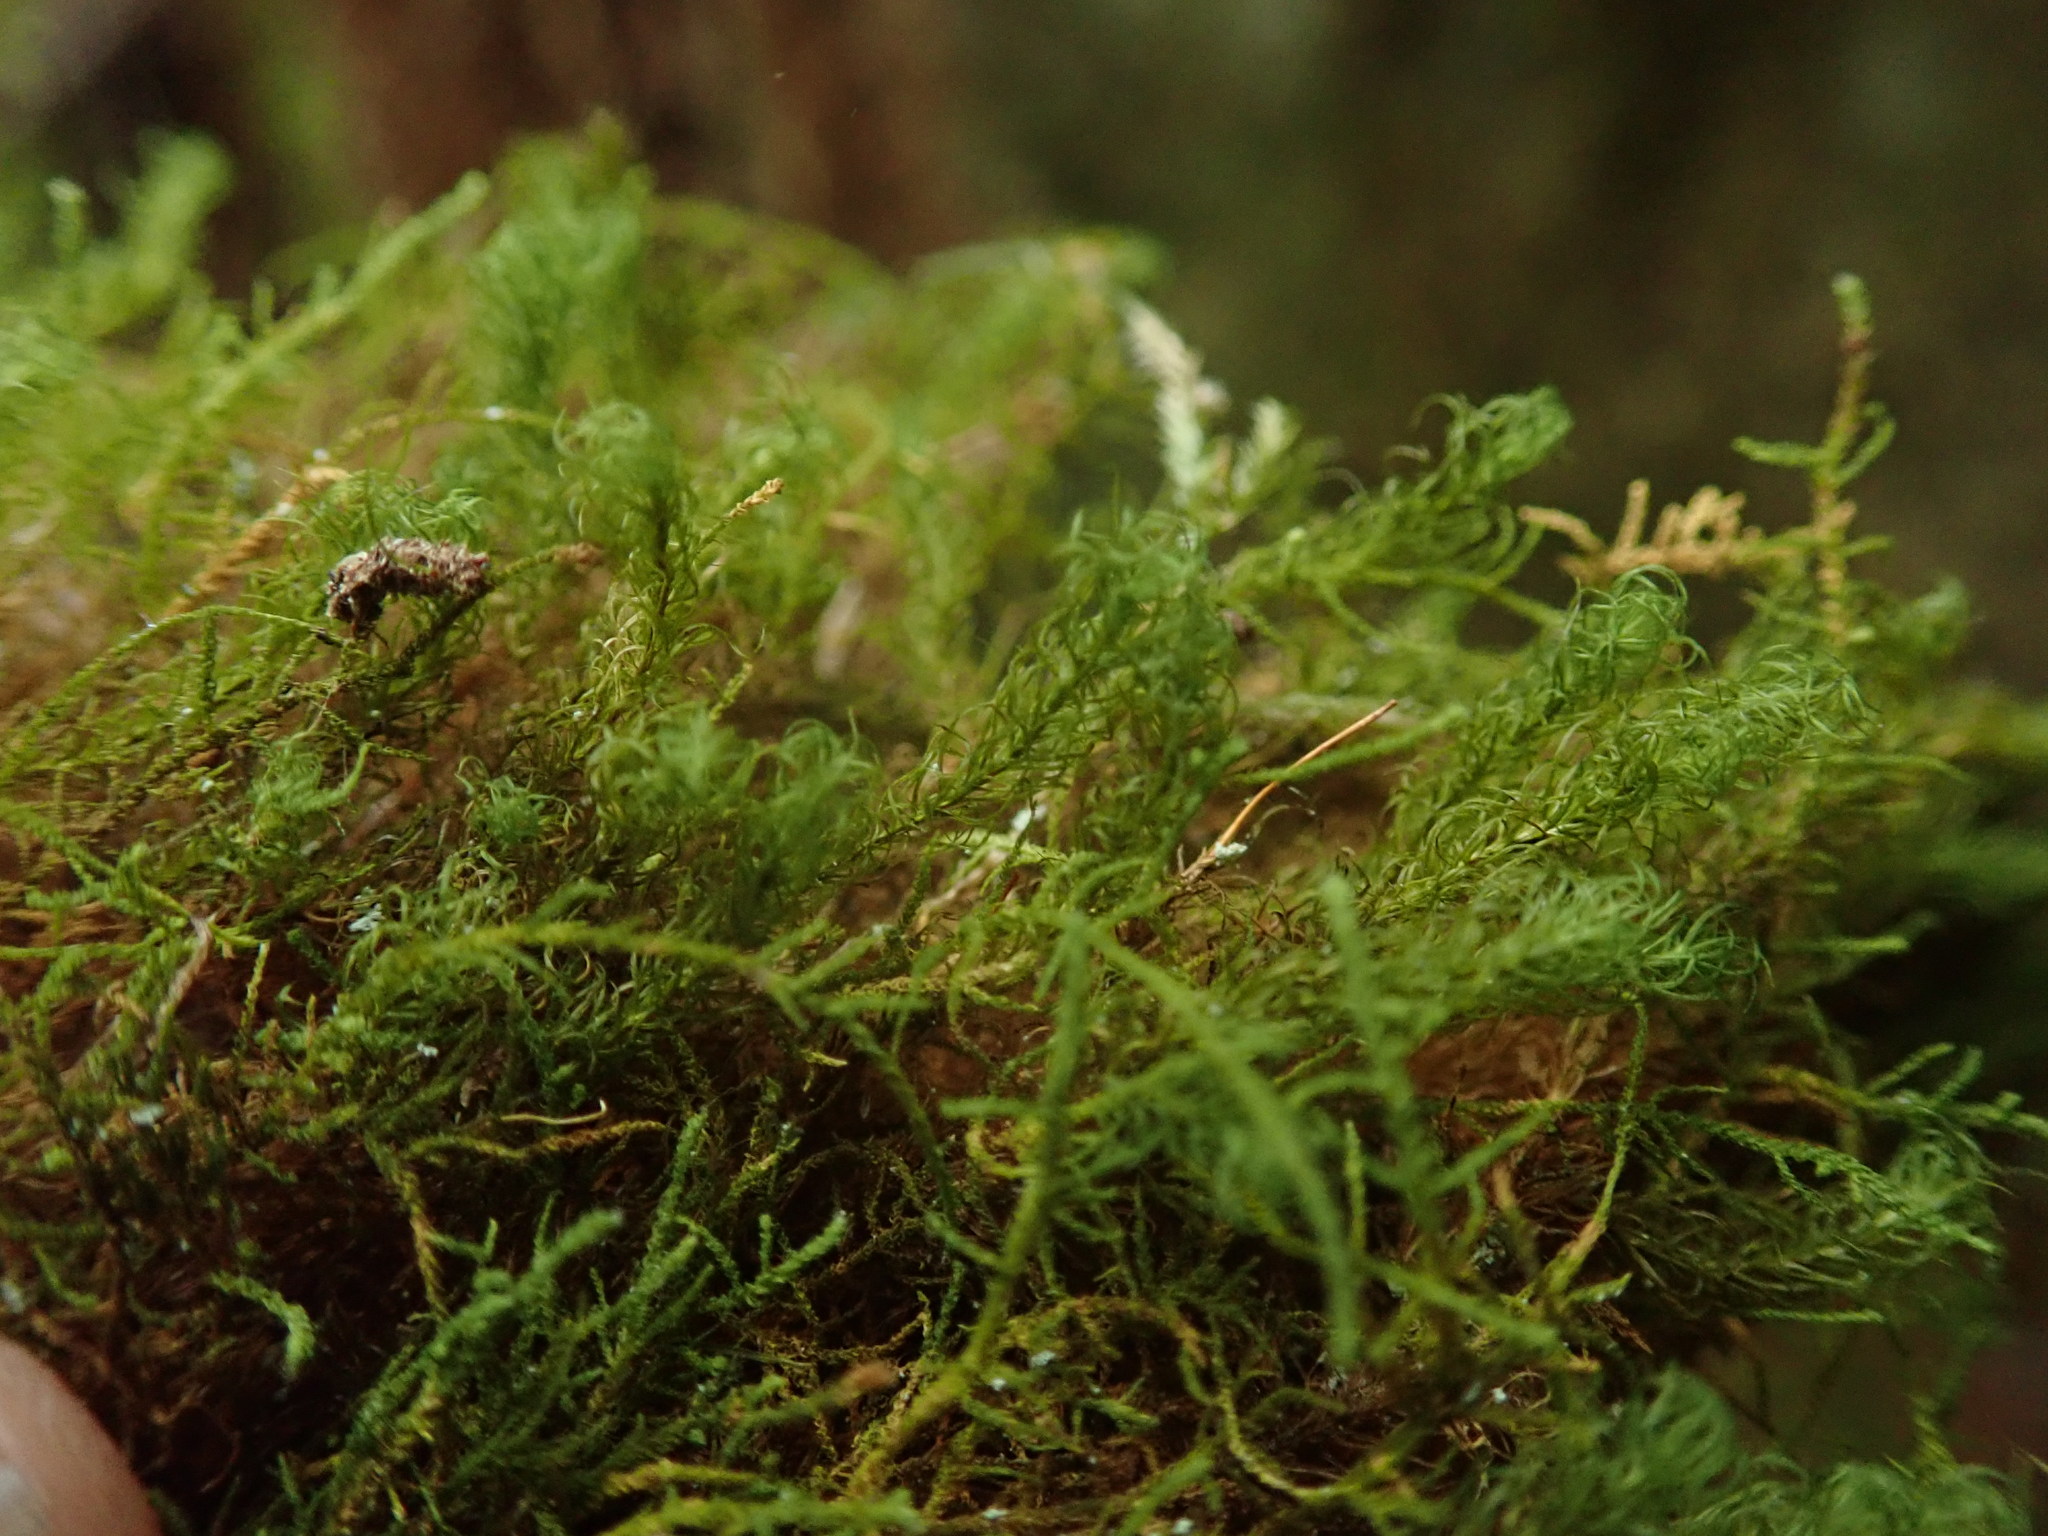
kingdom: Plantae
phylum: Bryophyta
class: Bryopsida
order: Bartramiales
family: Bartramiaceae
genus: Bartramia
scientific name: Bartramia ithyphylla
